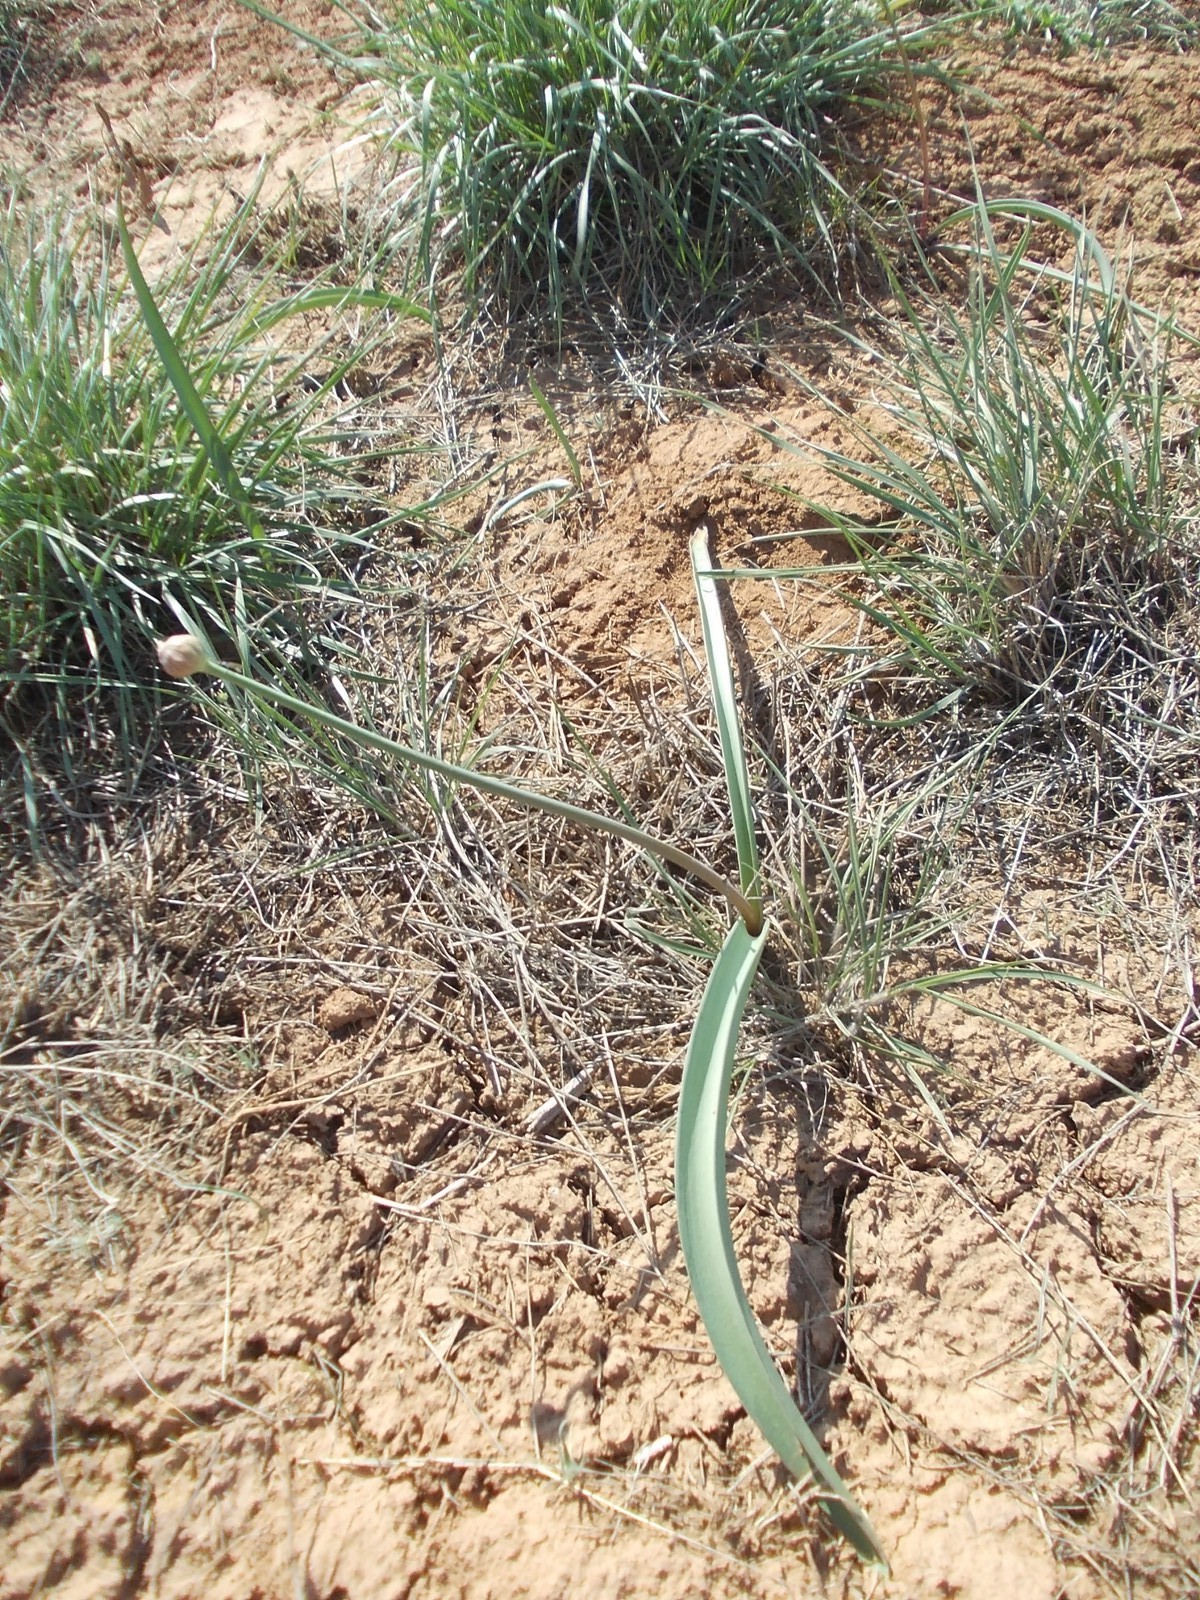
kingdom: Plantae
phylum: Tracheophyta
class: Liliopsida
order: Asparagales
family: Amaryllidaceae
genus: Allium
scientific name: Allium tulipifolium
